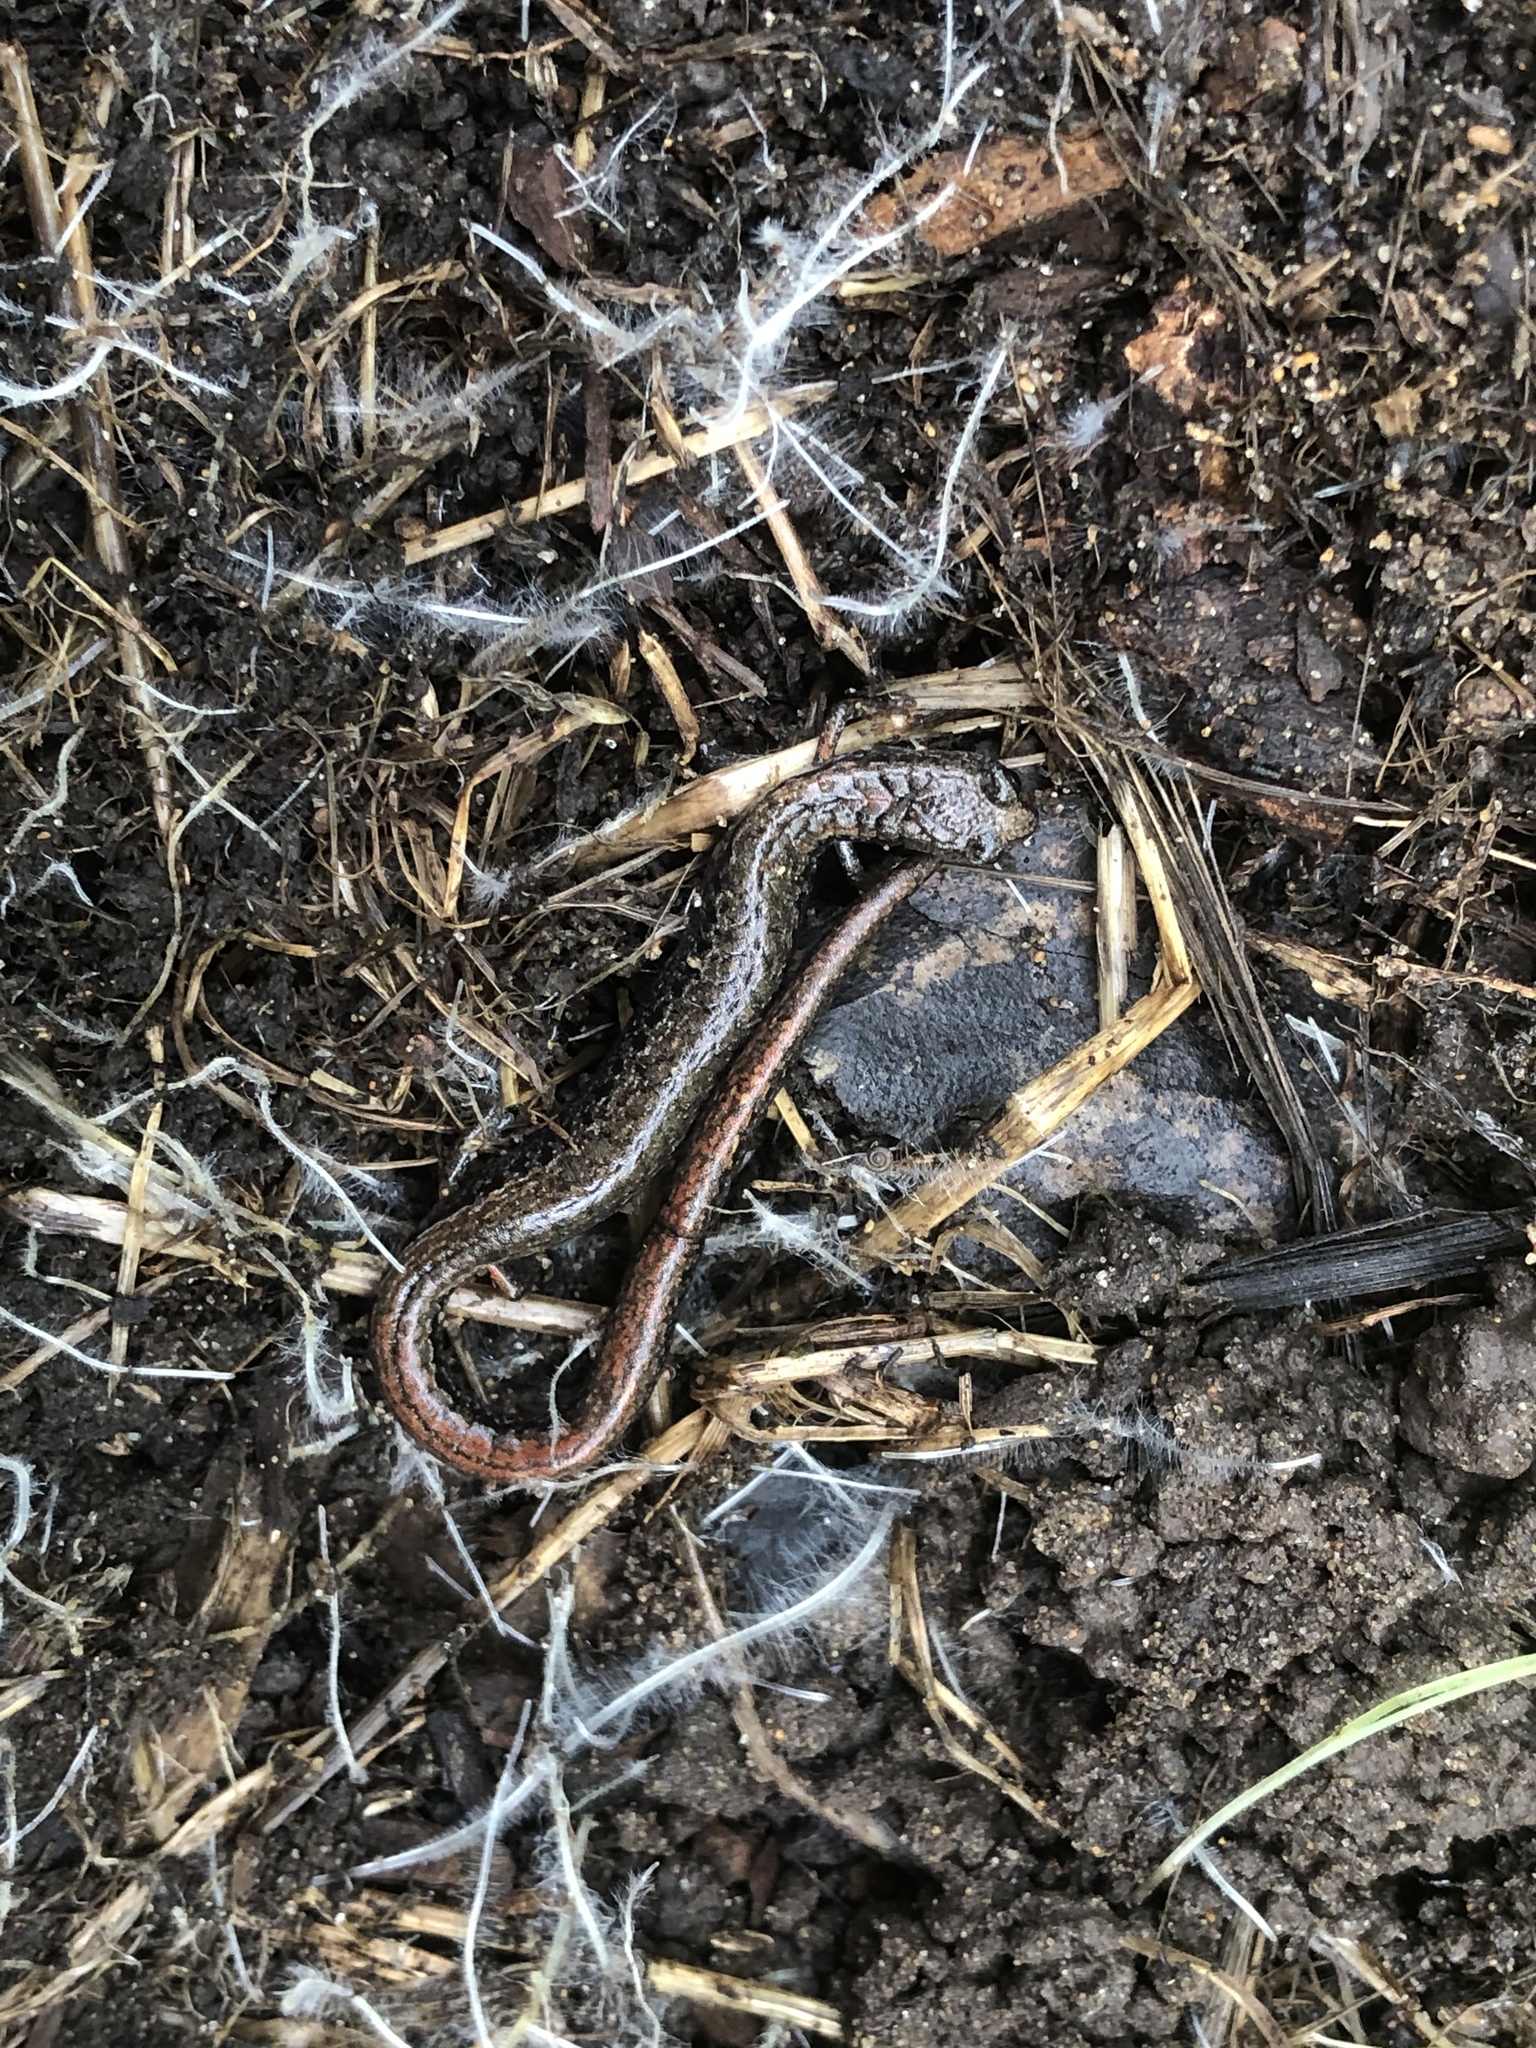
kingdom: Animalia
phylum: Chordata
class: Amphibia
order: Caudata
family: Plethodontidae
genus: Batrachoseps
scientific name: Batrachoseps attenuatus
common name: California slender salamander
